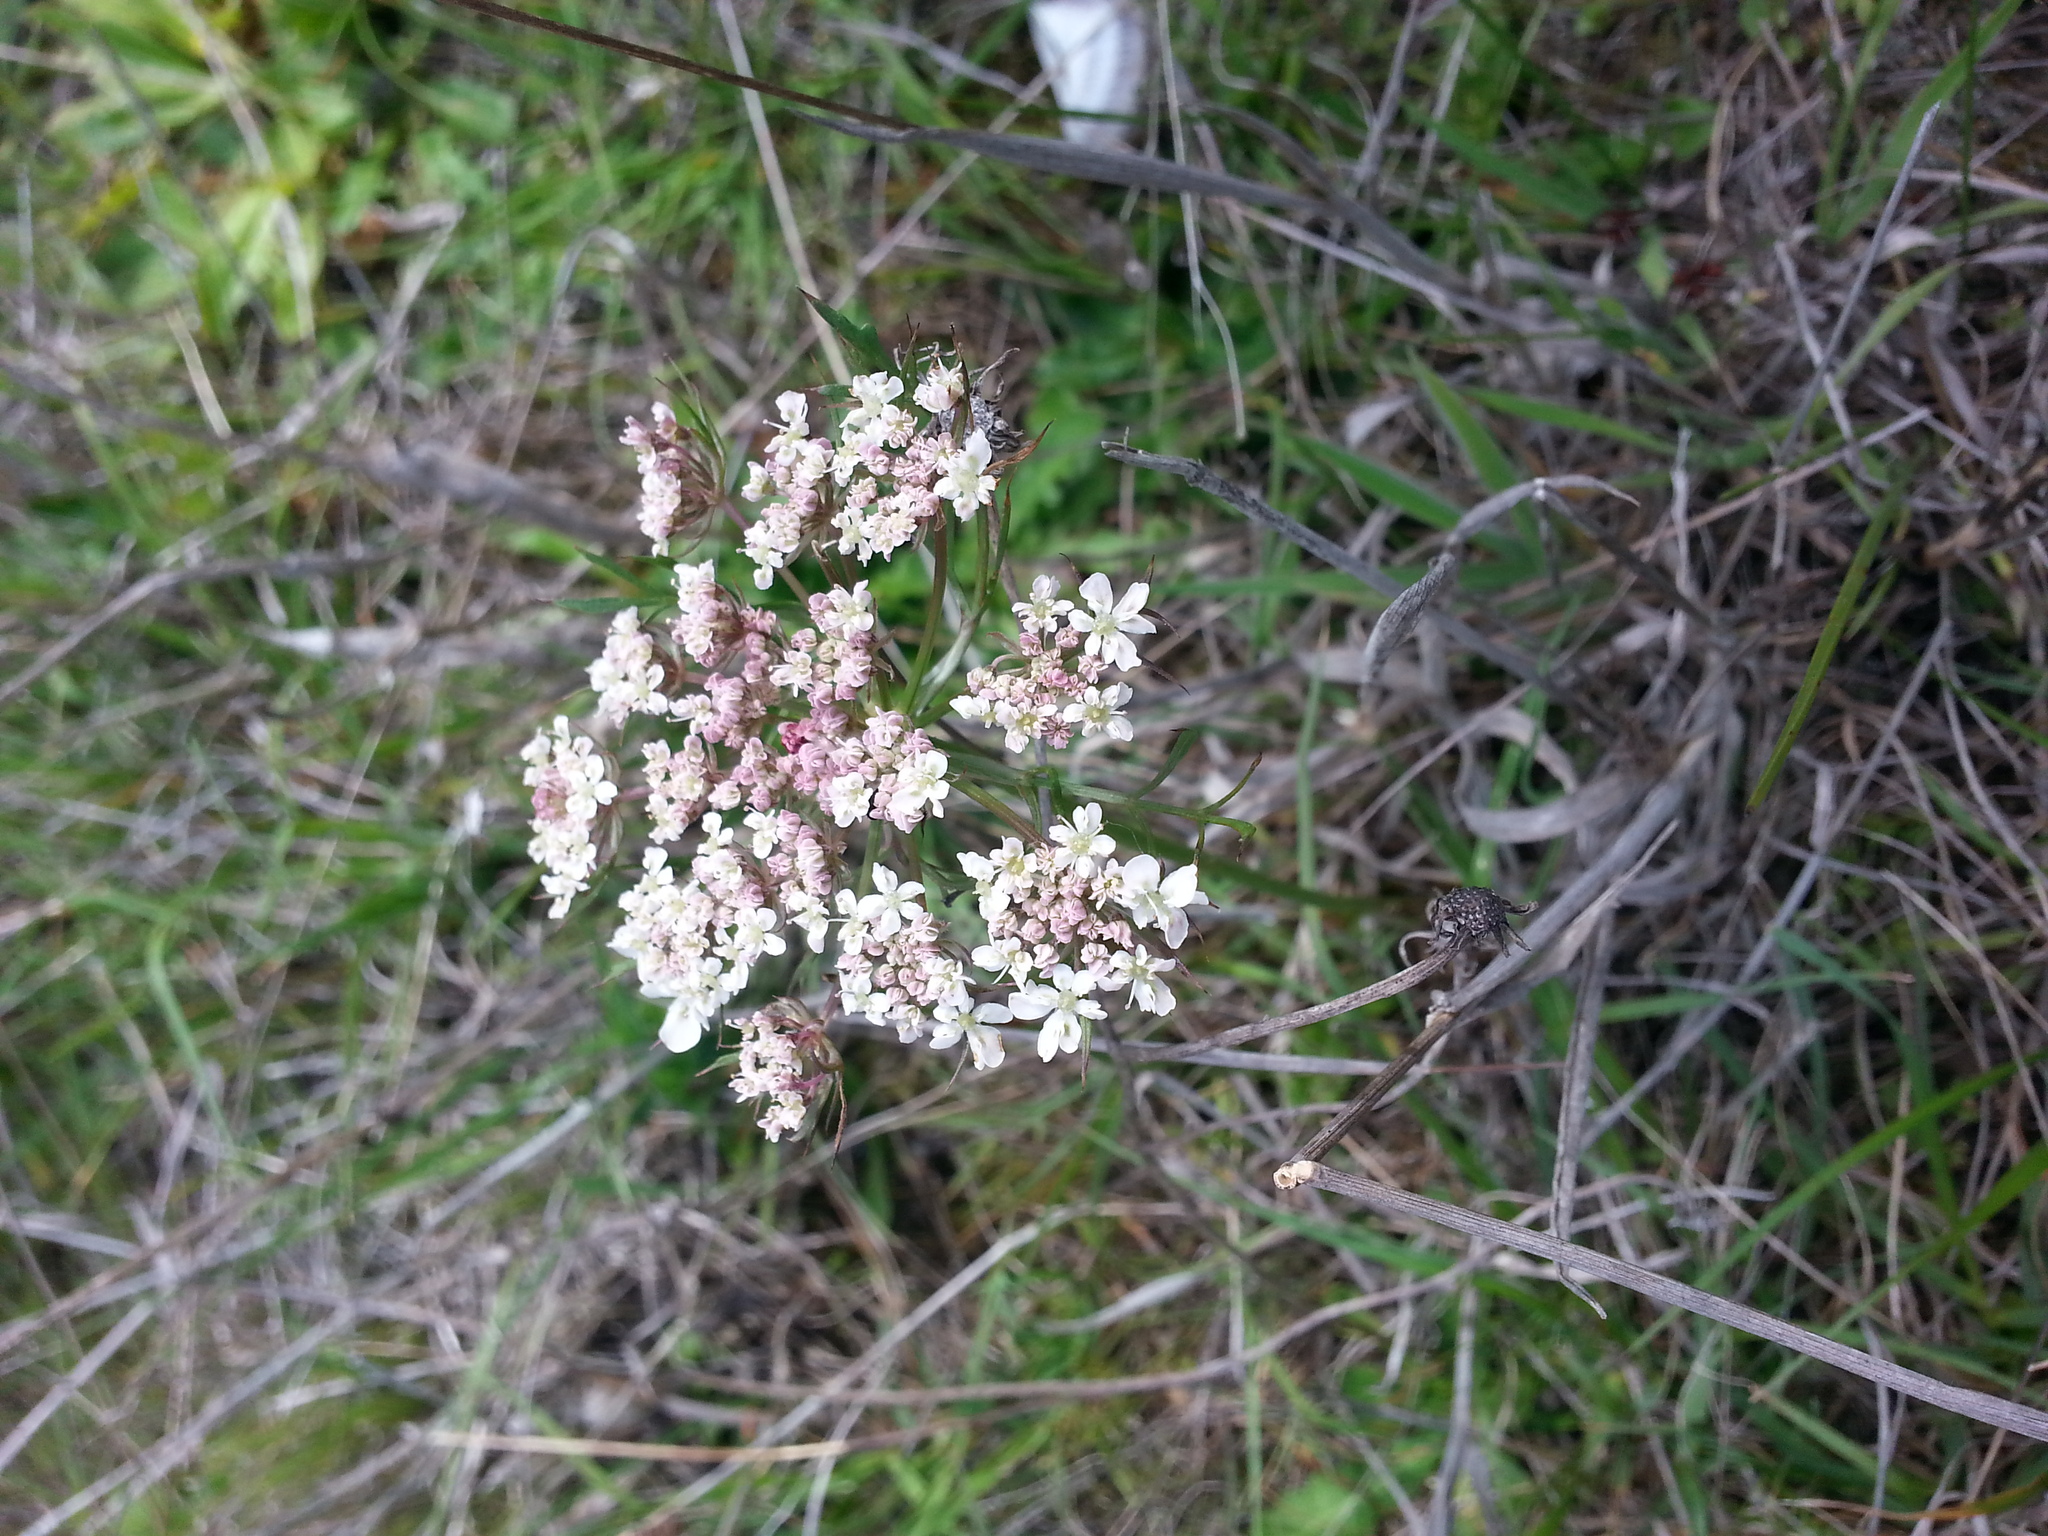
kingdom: Plantae
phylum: Tracheophyta
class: Magnoliopsida
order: Apiales
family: Apiaceae
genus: Daucus
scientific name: Daucus carota
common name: Wild carrot
